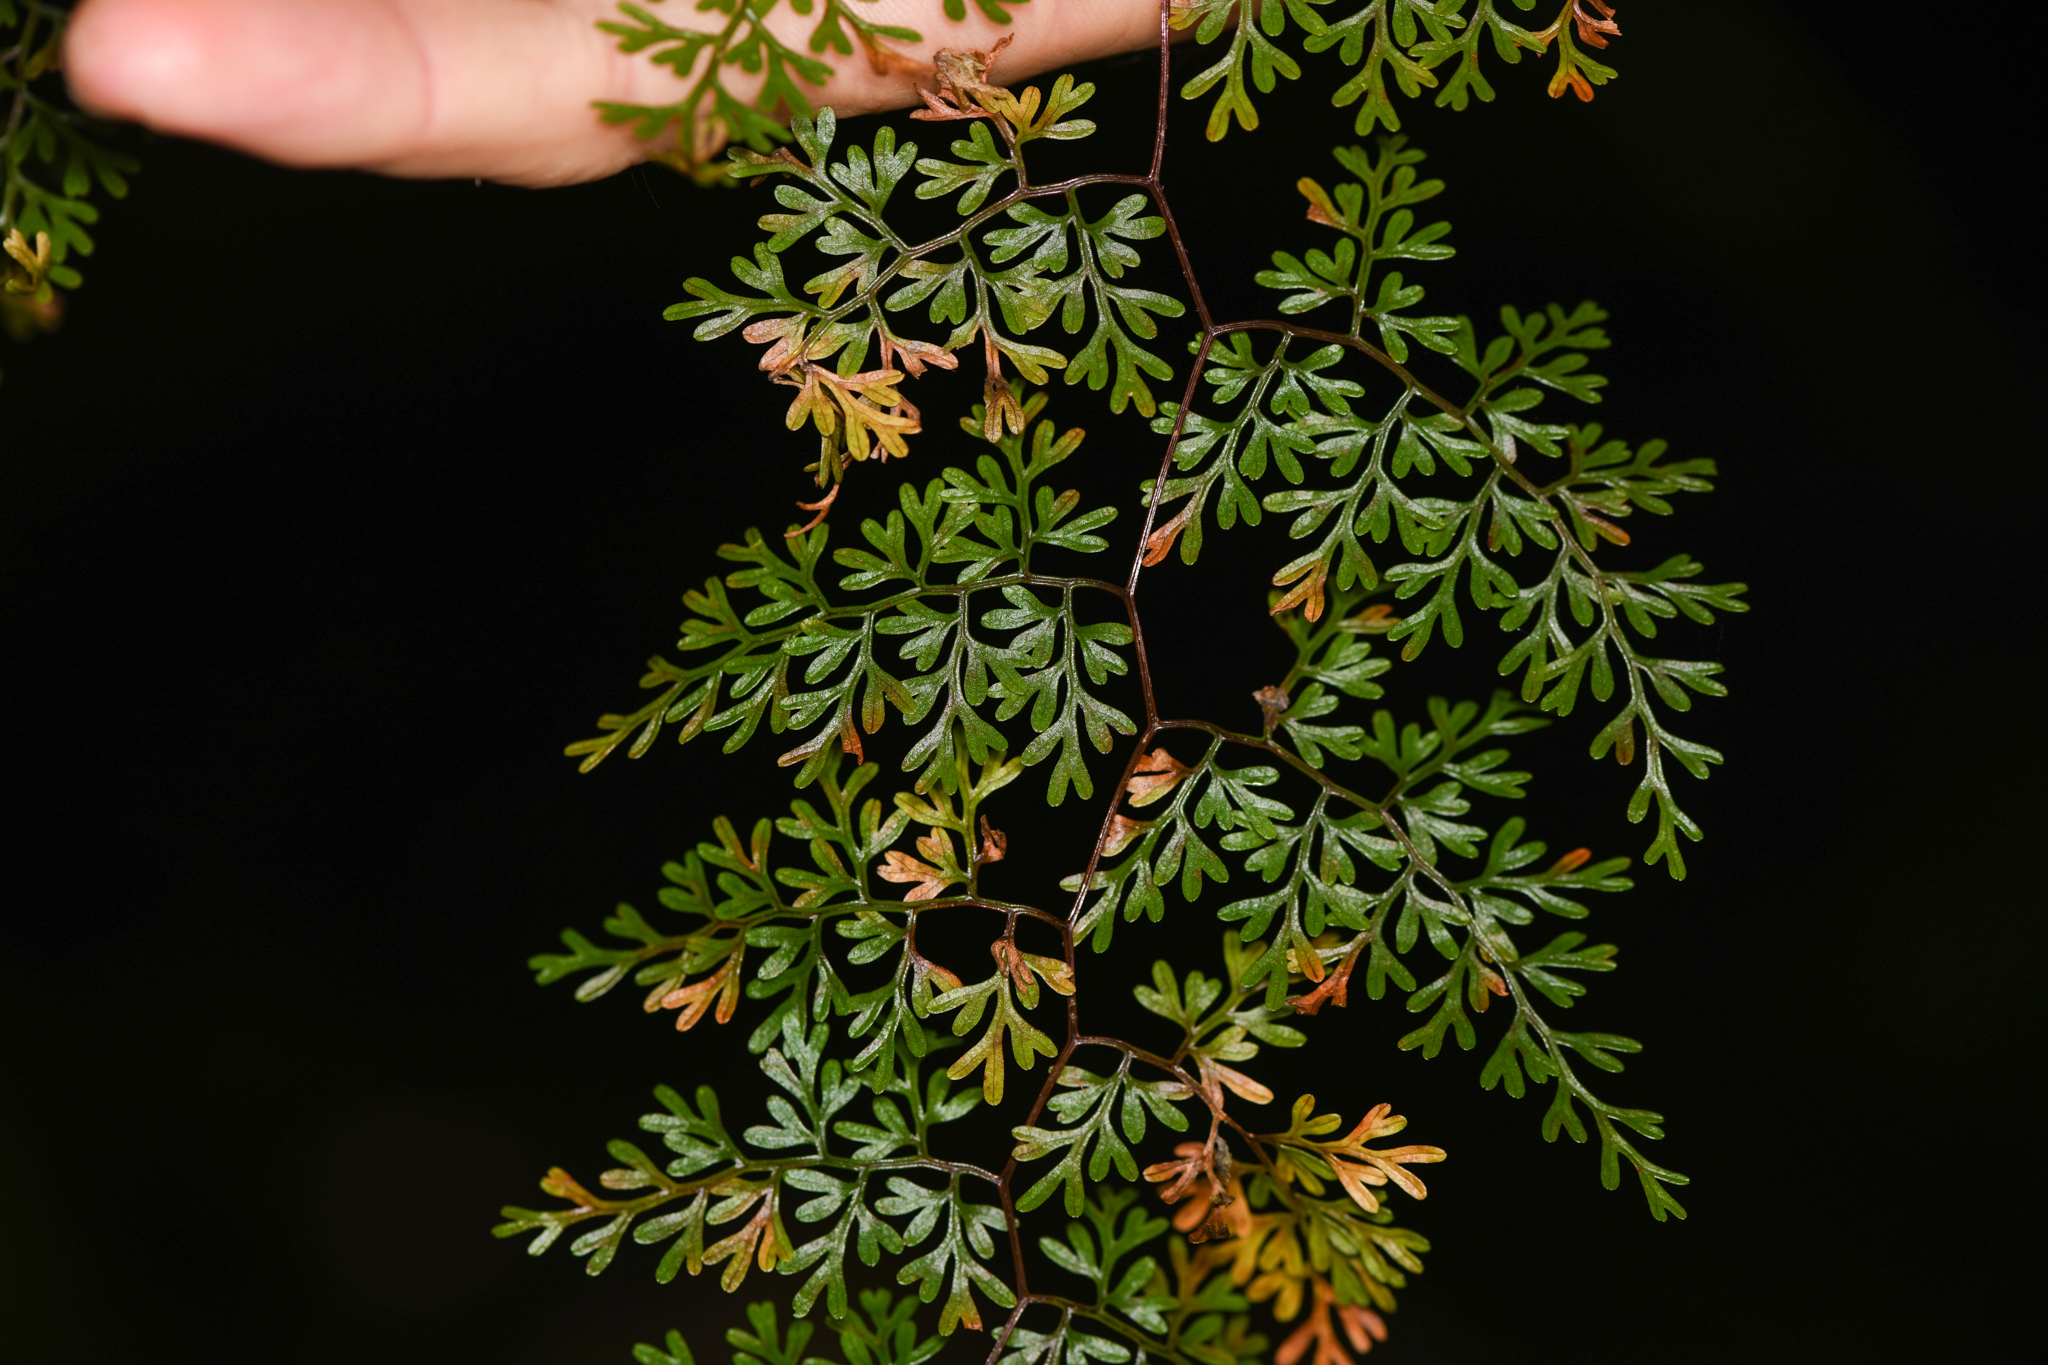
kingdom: Plantae
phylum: Tracheophyta
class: Polypodiopsida
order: Polypodiales
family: Pteridaceae
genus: Jamesonia
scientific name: Jamesonia flexuosa
